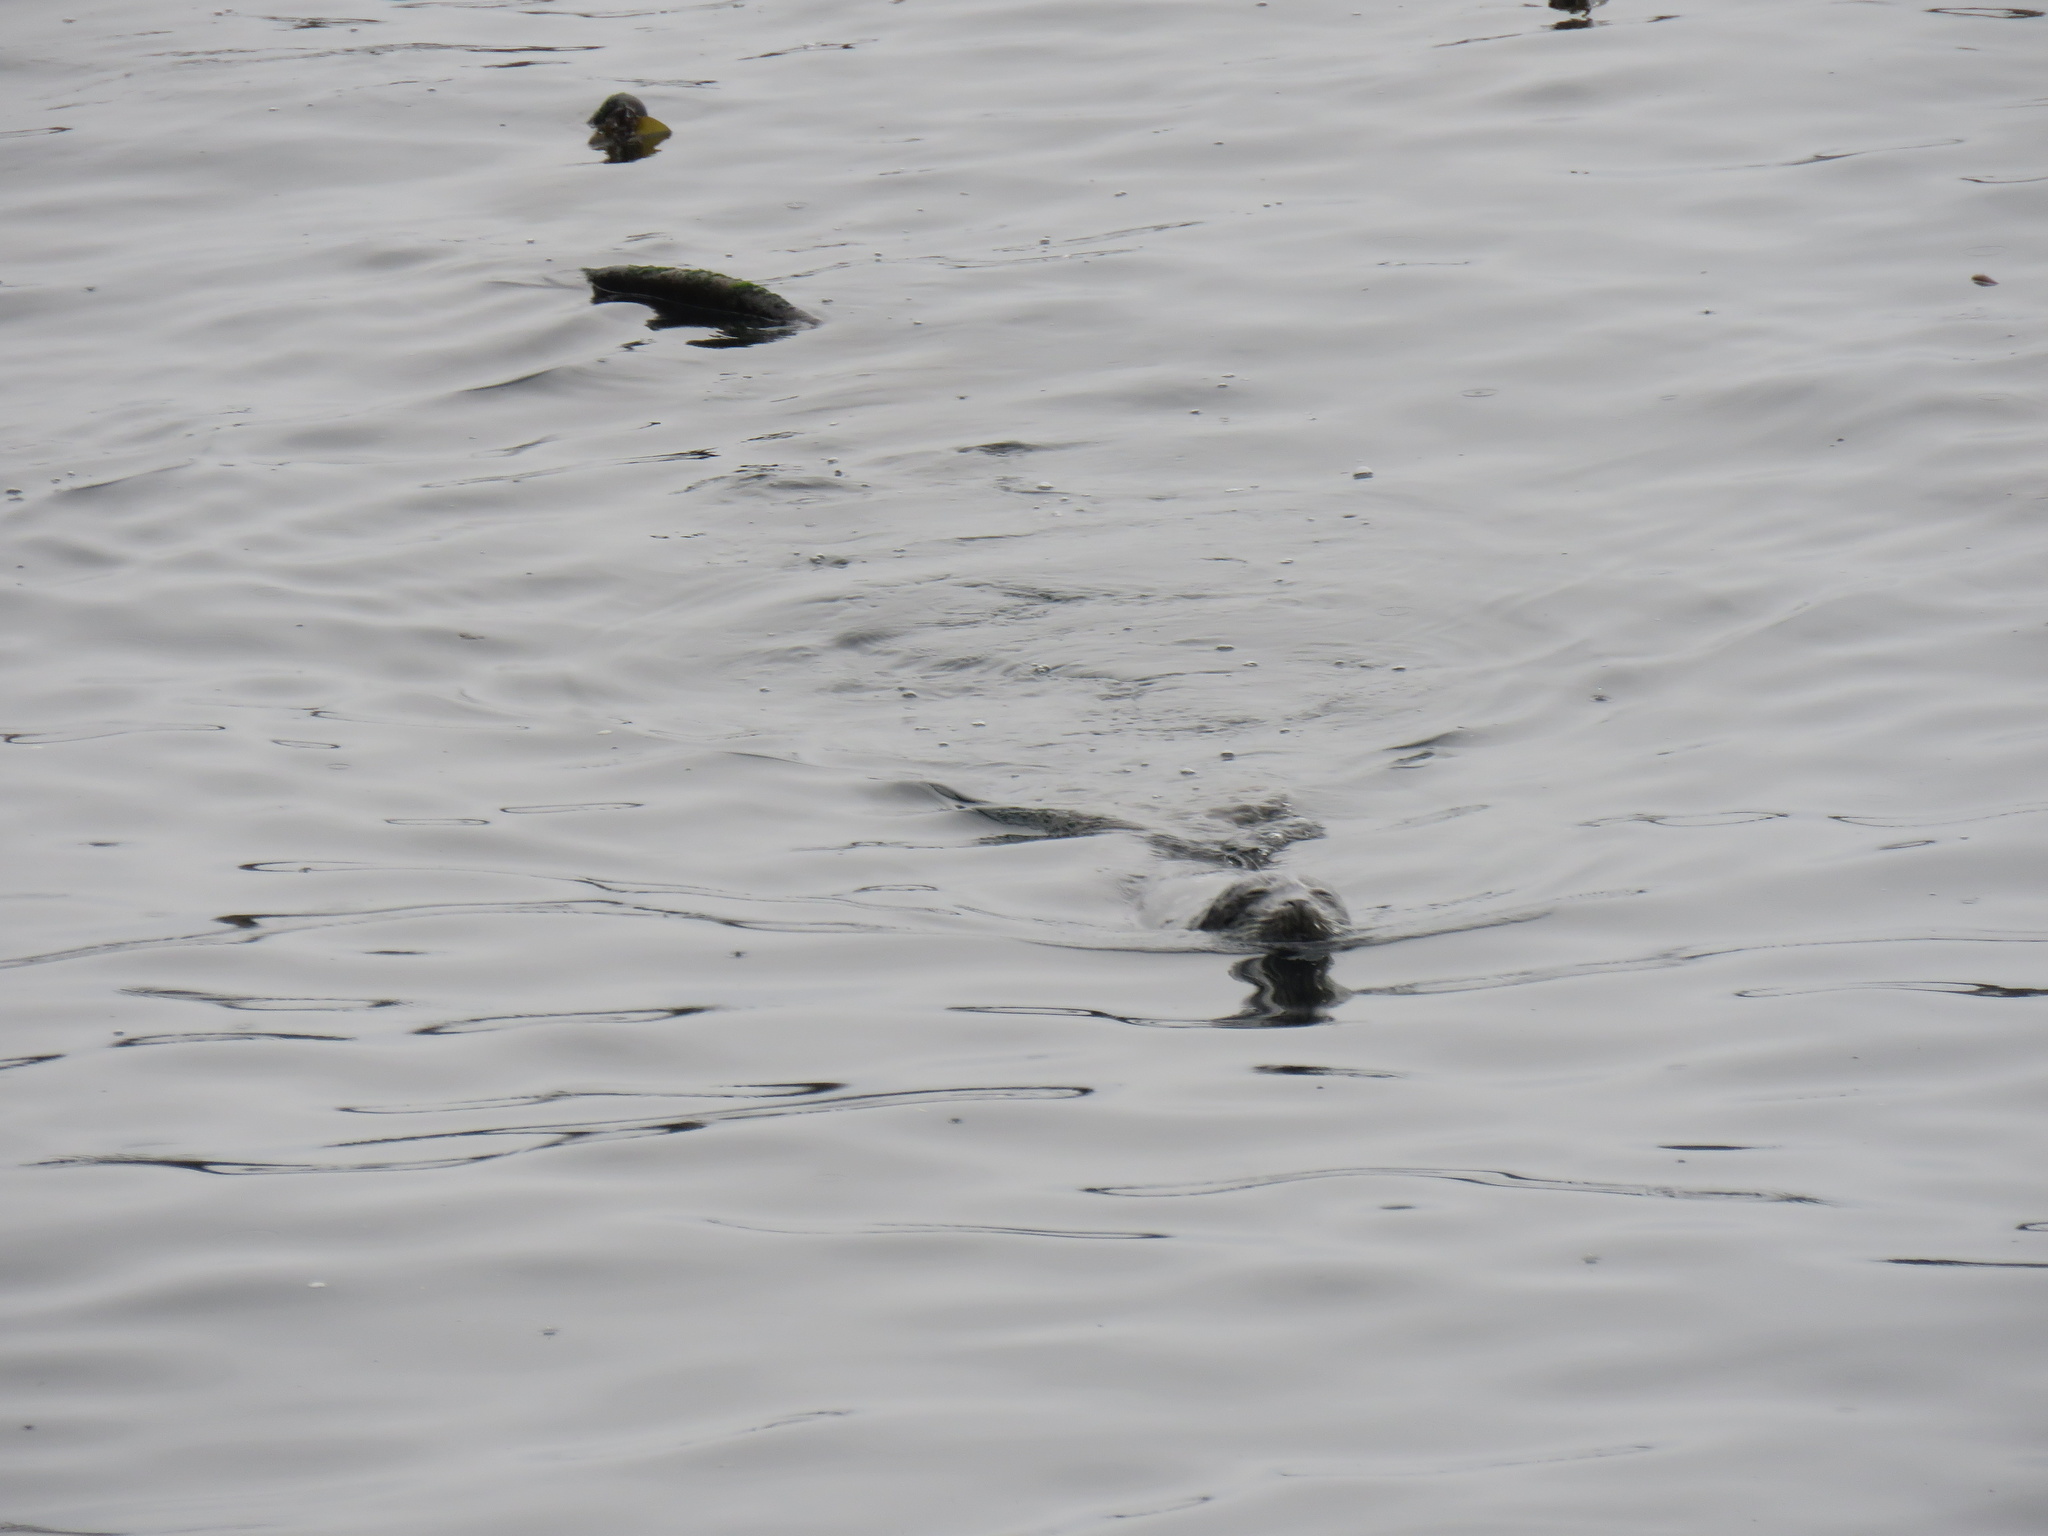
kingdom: Animalia
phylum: Chordata
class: Mammalia
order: Carnivora
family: Phocidae
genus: Phoca
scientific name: Phoca vitulina
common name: Harbor seal
